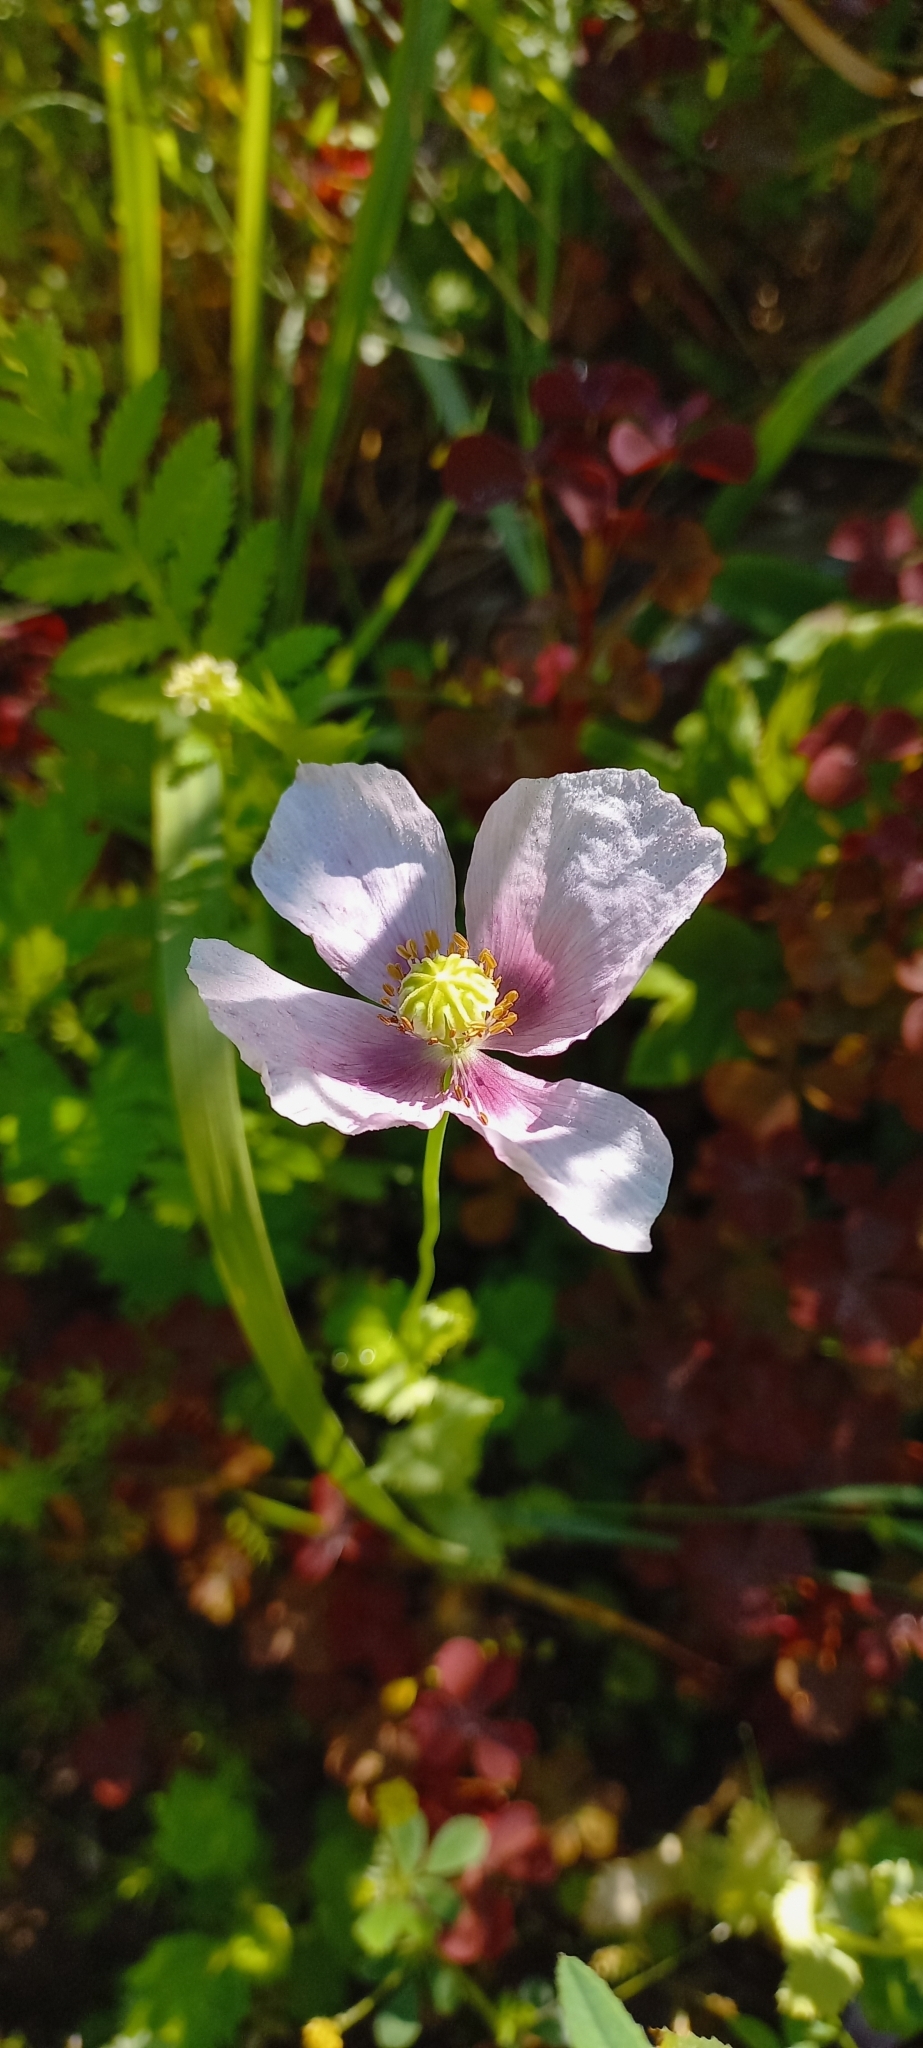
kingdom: Plantae
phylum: Tracheophyta
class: Magnoliopsida
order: Ranunculales
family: Papaveraceae
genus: Papaver
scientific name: Papaver somniferum
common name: Opium poppy
